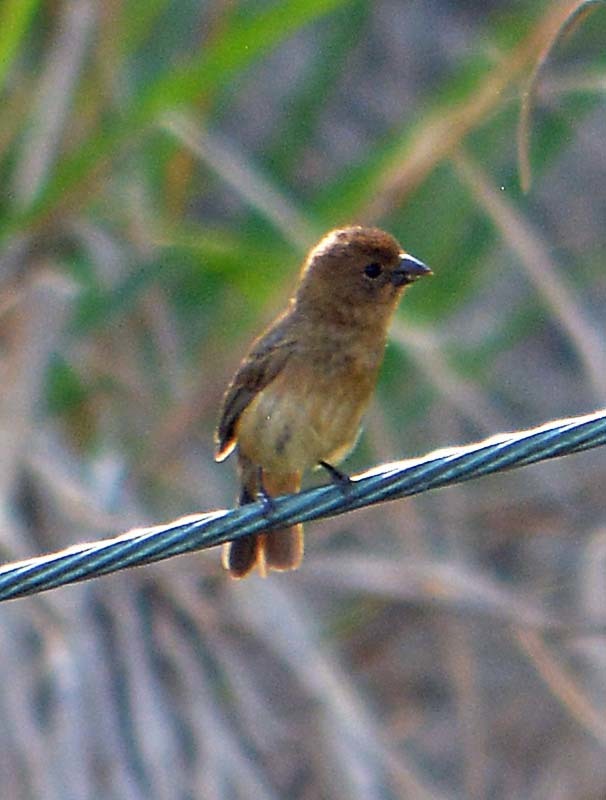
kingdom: Animalia
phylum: Chordata
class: Aves
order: Passeriformes
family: Thraupidae
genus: Sporophila
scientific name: Sporophila torqueola
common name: White-collared seedeater
